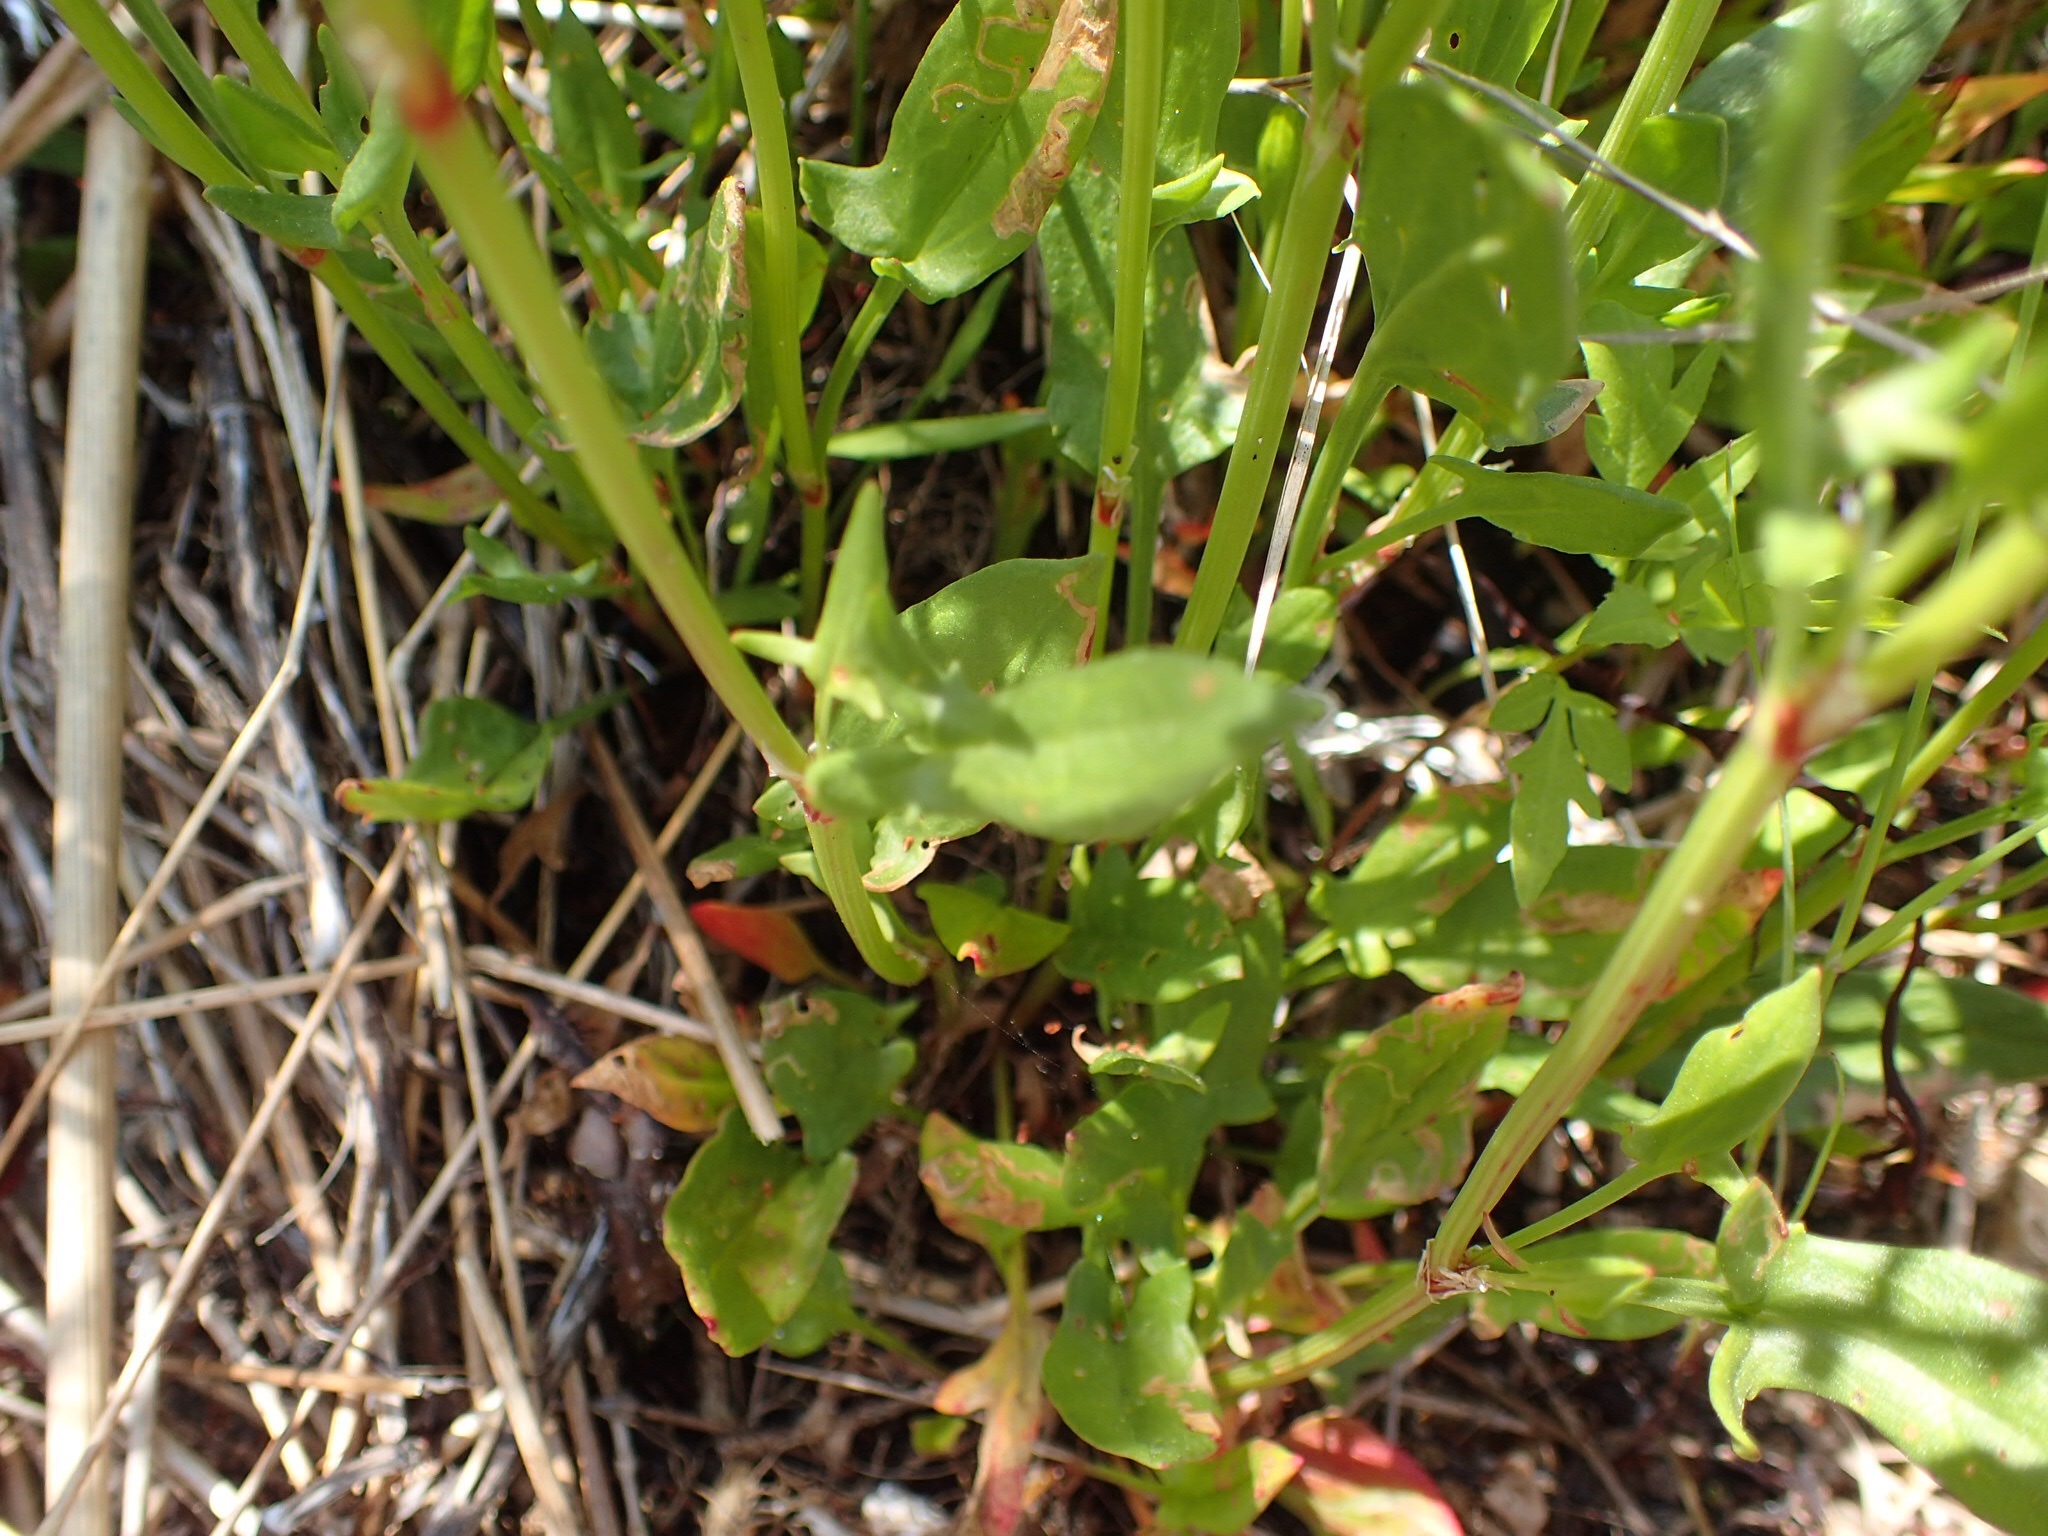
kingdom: Plantae
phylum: Tracheophyta
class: Magnoliopsida
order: Caryophyllales
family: Polygonaceae
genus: Rumex
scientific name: Rumex acetosella
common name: Common sheep sorrel
